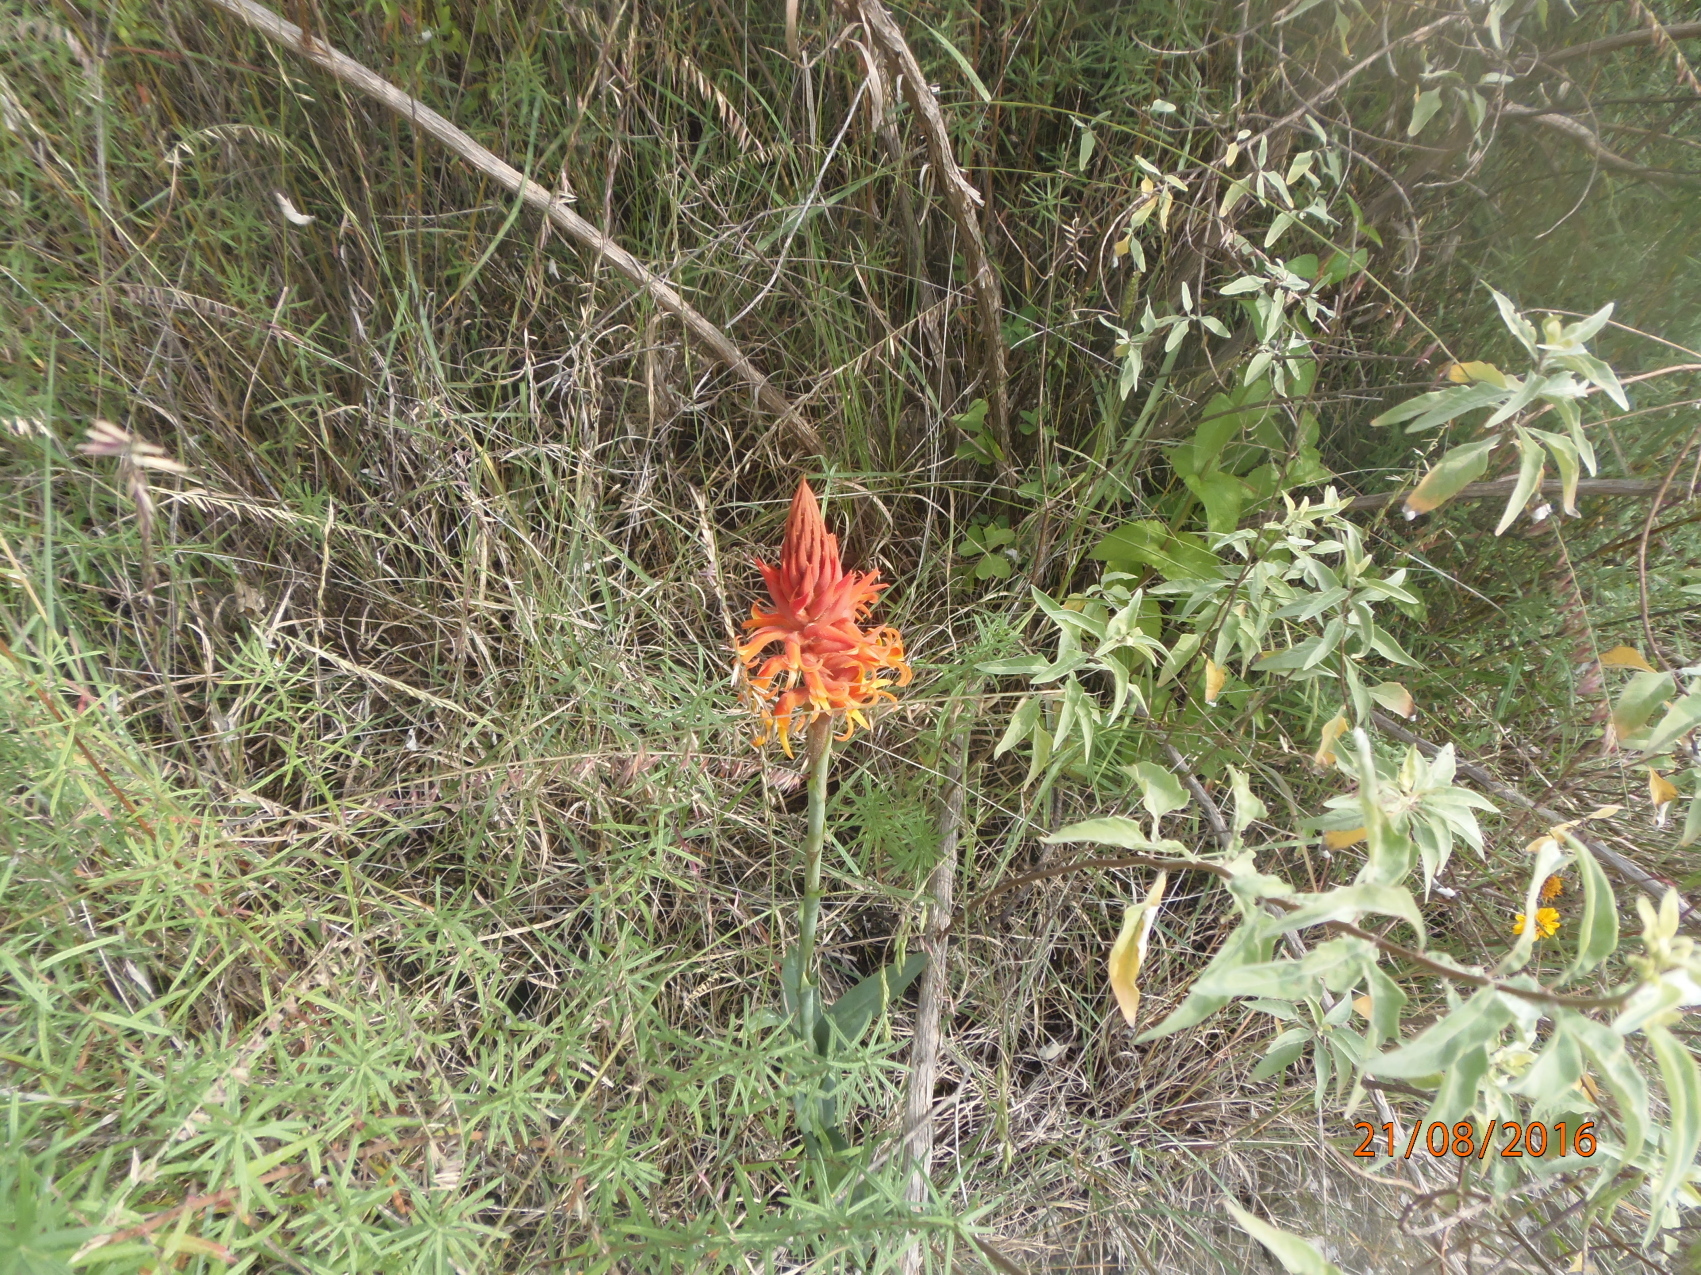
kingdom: Plantae
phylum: Tracheophyta
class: Liliopsida
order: Asparagales
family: Orchidaceae
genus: Dichromanthus
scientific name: Dichromanthus cinnabarinus
